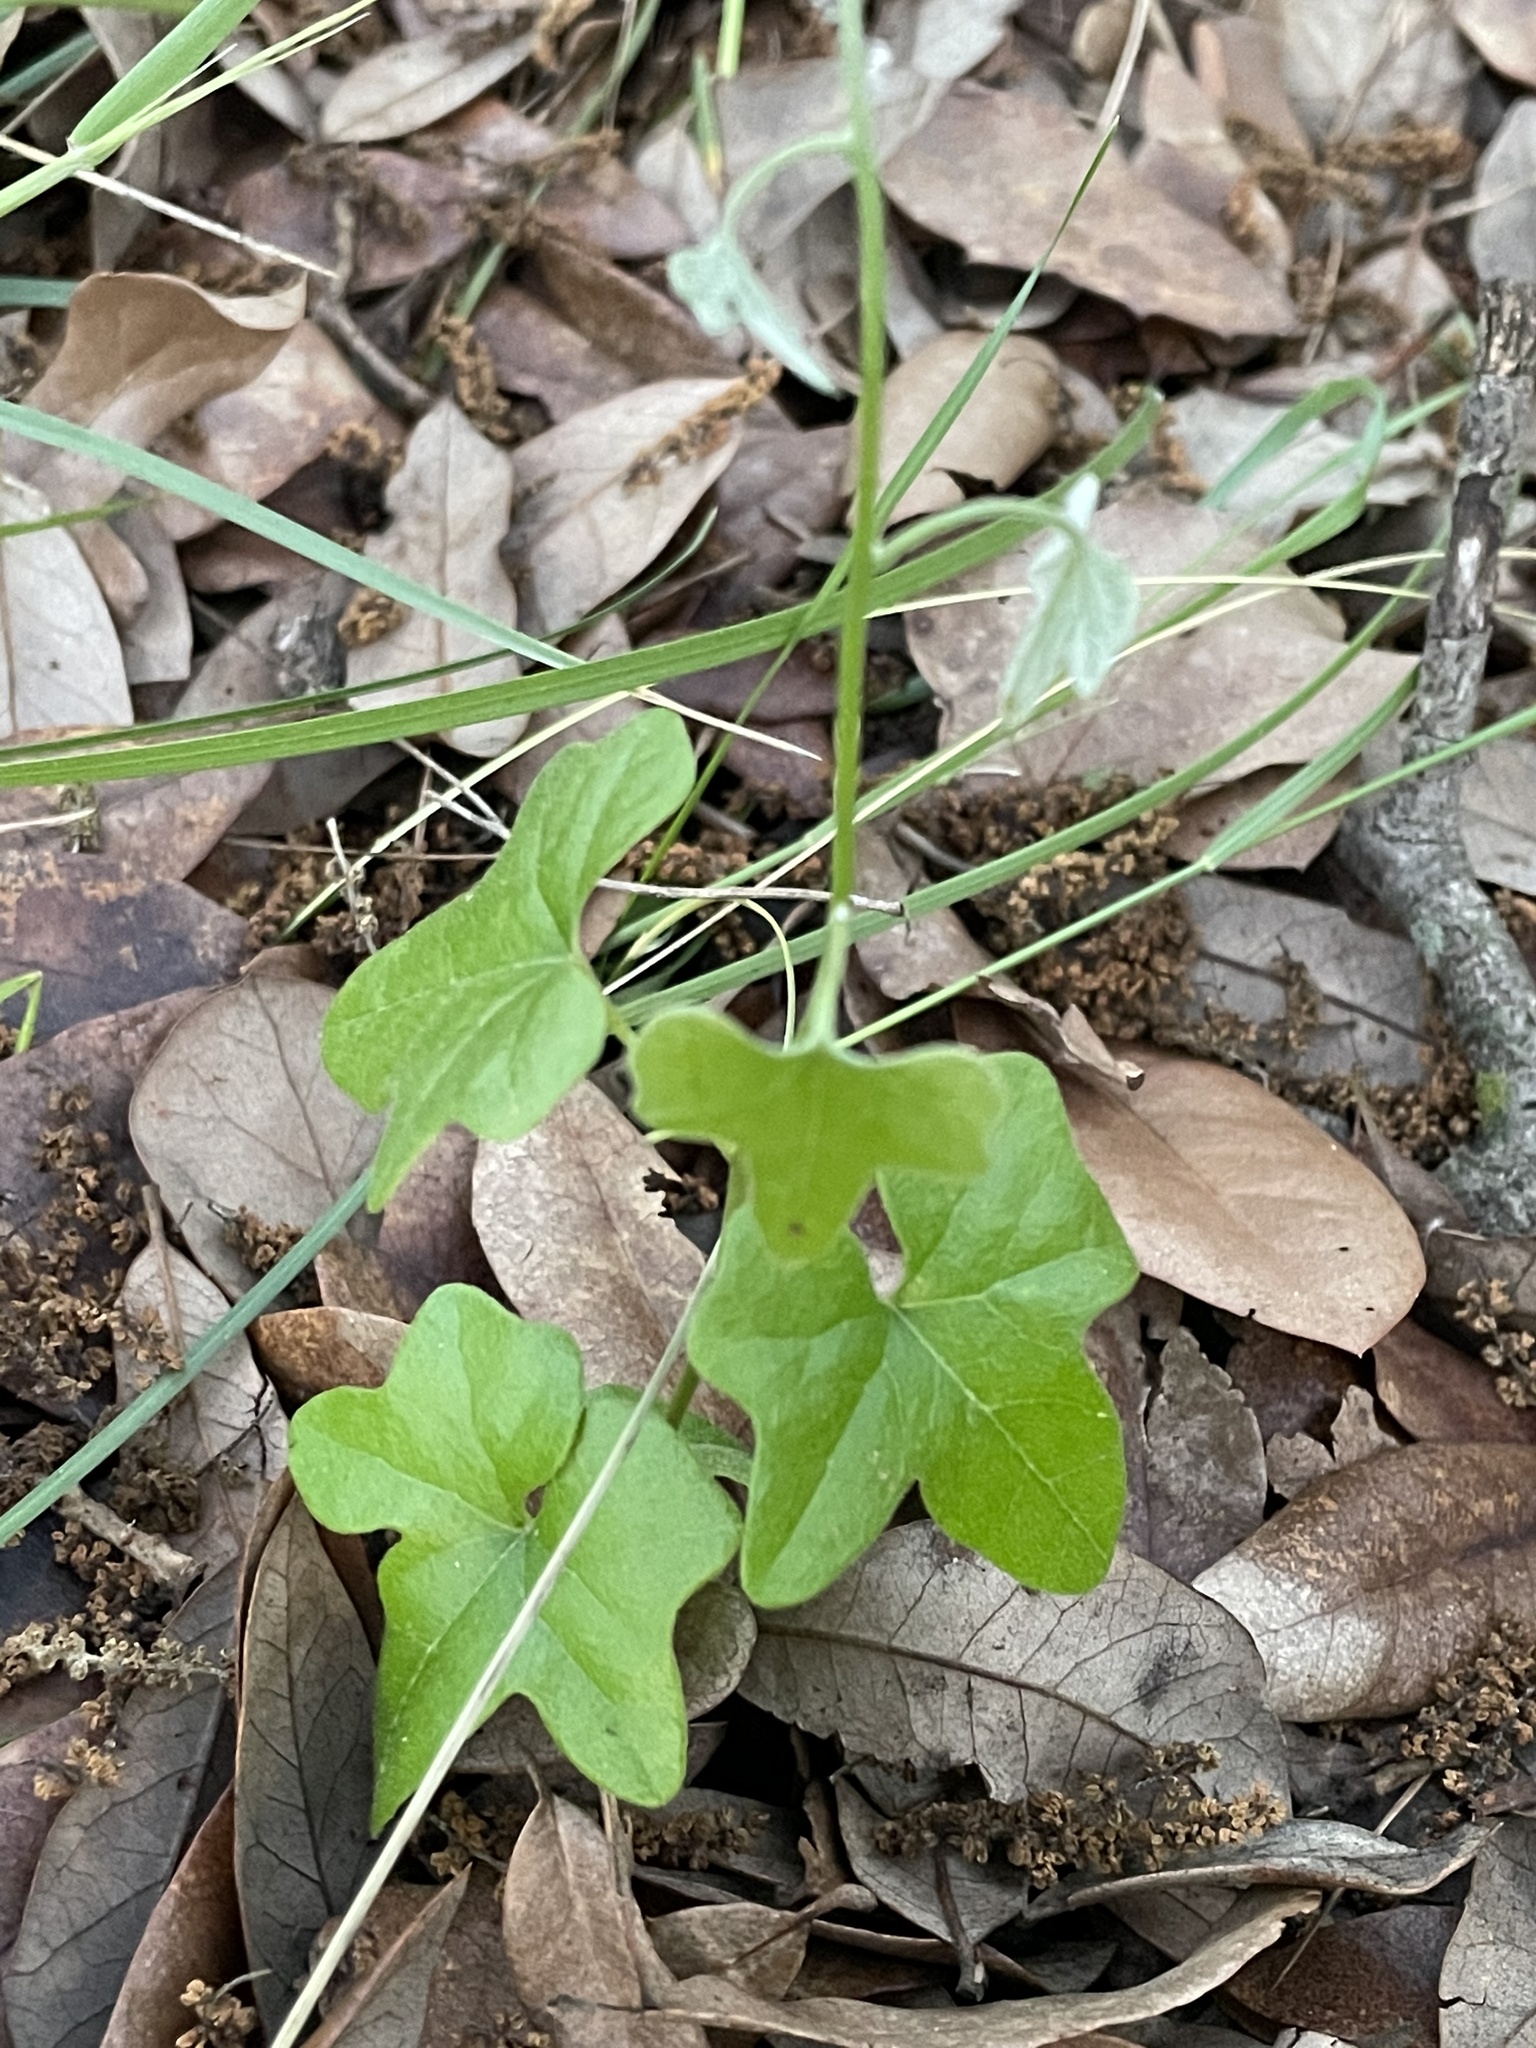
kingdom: Plantae
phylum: Tracheophyta
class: Magnoliopsida
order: Ranunculales
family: Menispermaceae
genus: Cocculus
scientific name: Cocculus carolinus
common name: Carolina moonseed
